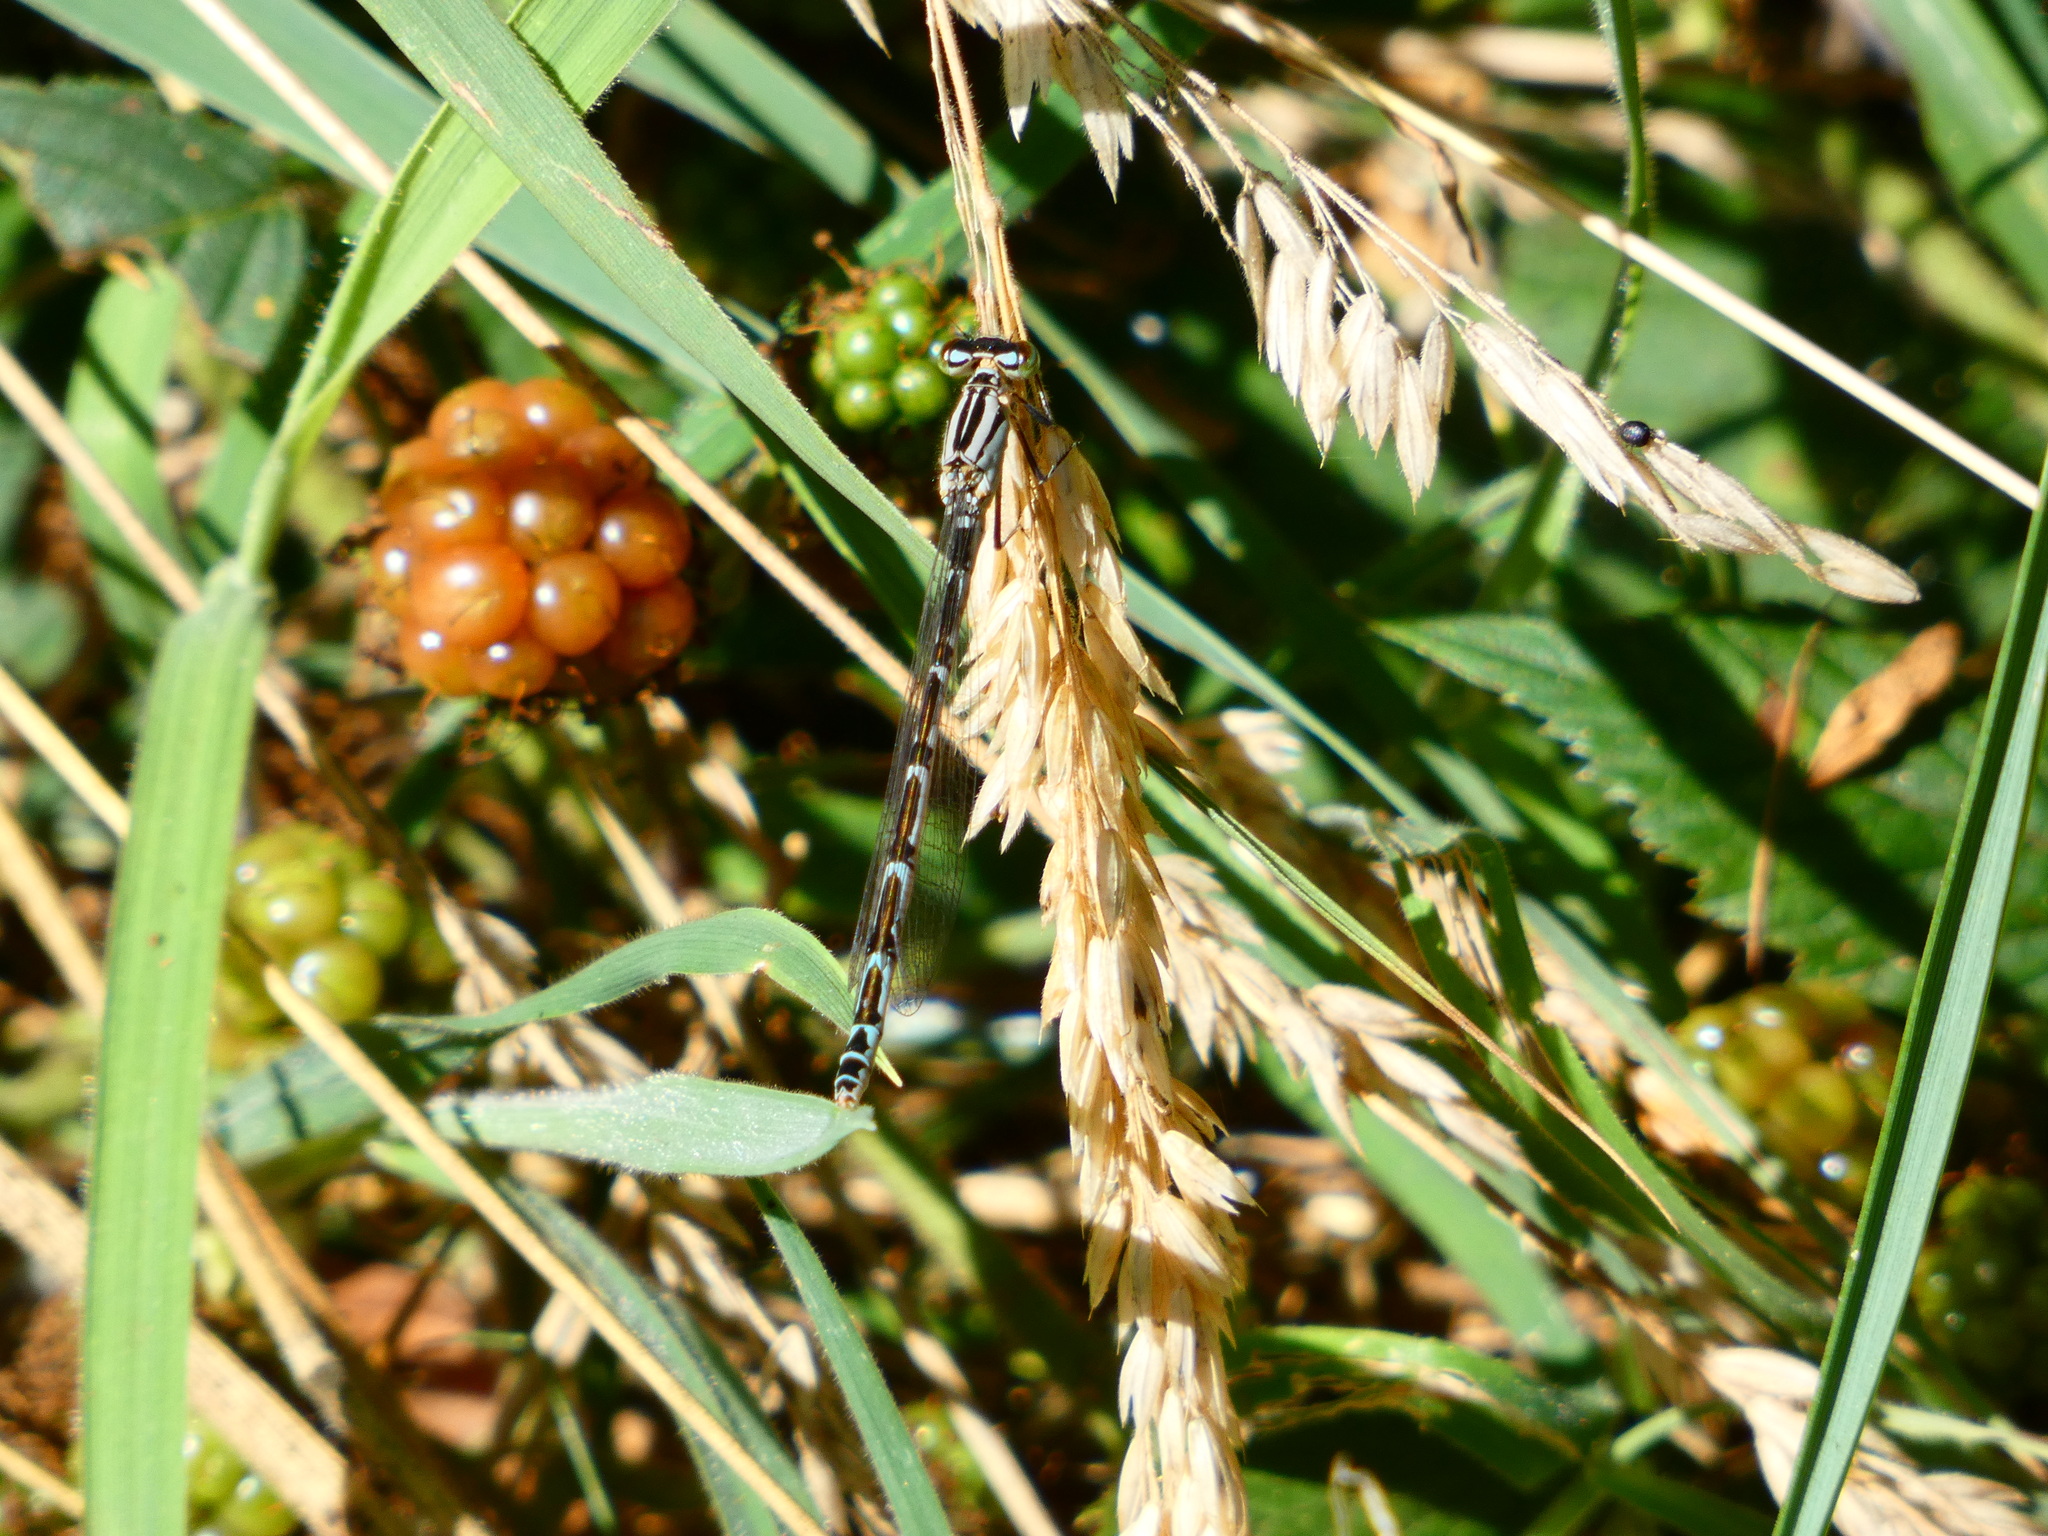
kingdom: Animalia
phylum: Arthropoda
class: Insecta
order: Odonata
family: Coenagrionidae
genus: Enallagma
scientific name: Enallagma cyathigerum
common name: Common blue damselfly
